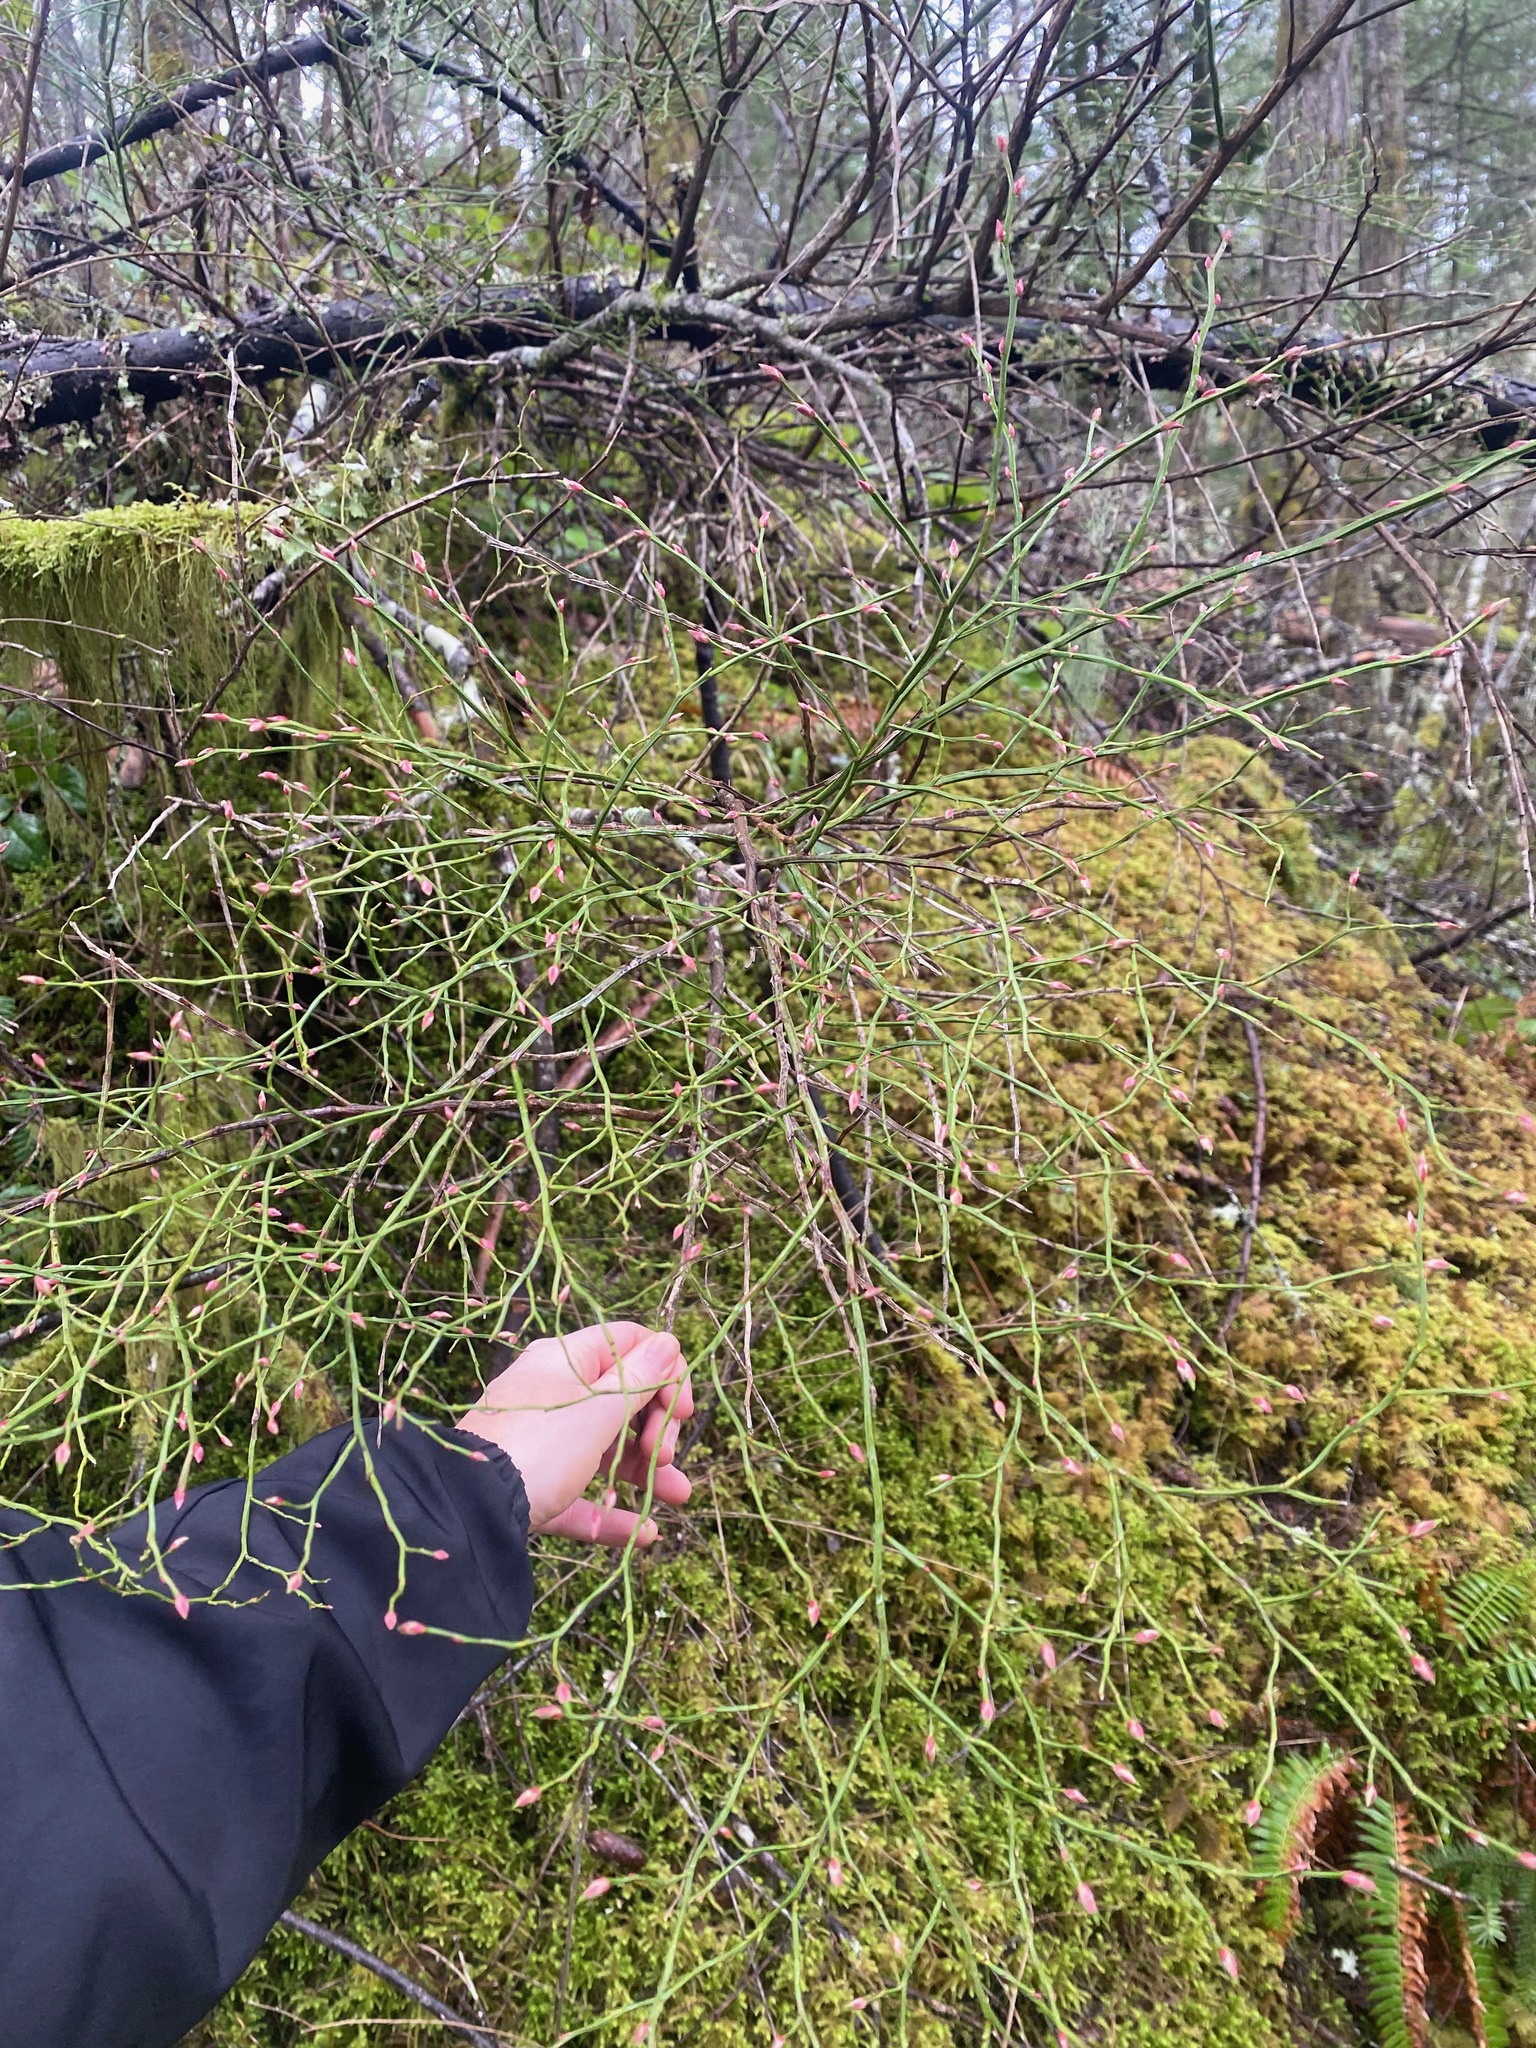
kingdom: Plantae
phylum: Tracheophyta
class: Magnoliopsida
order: Ericales
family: Ericaceae
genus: Vaccinium
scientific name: Vaccinium parvifolium
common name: Red-huckleberry
